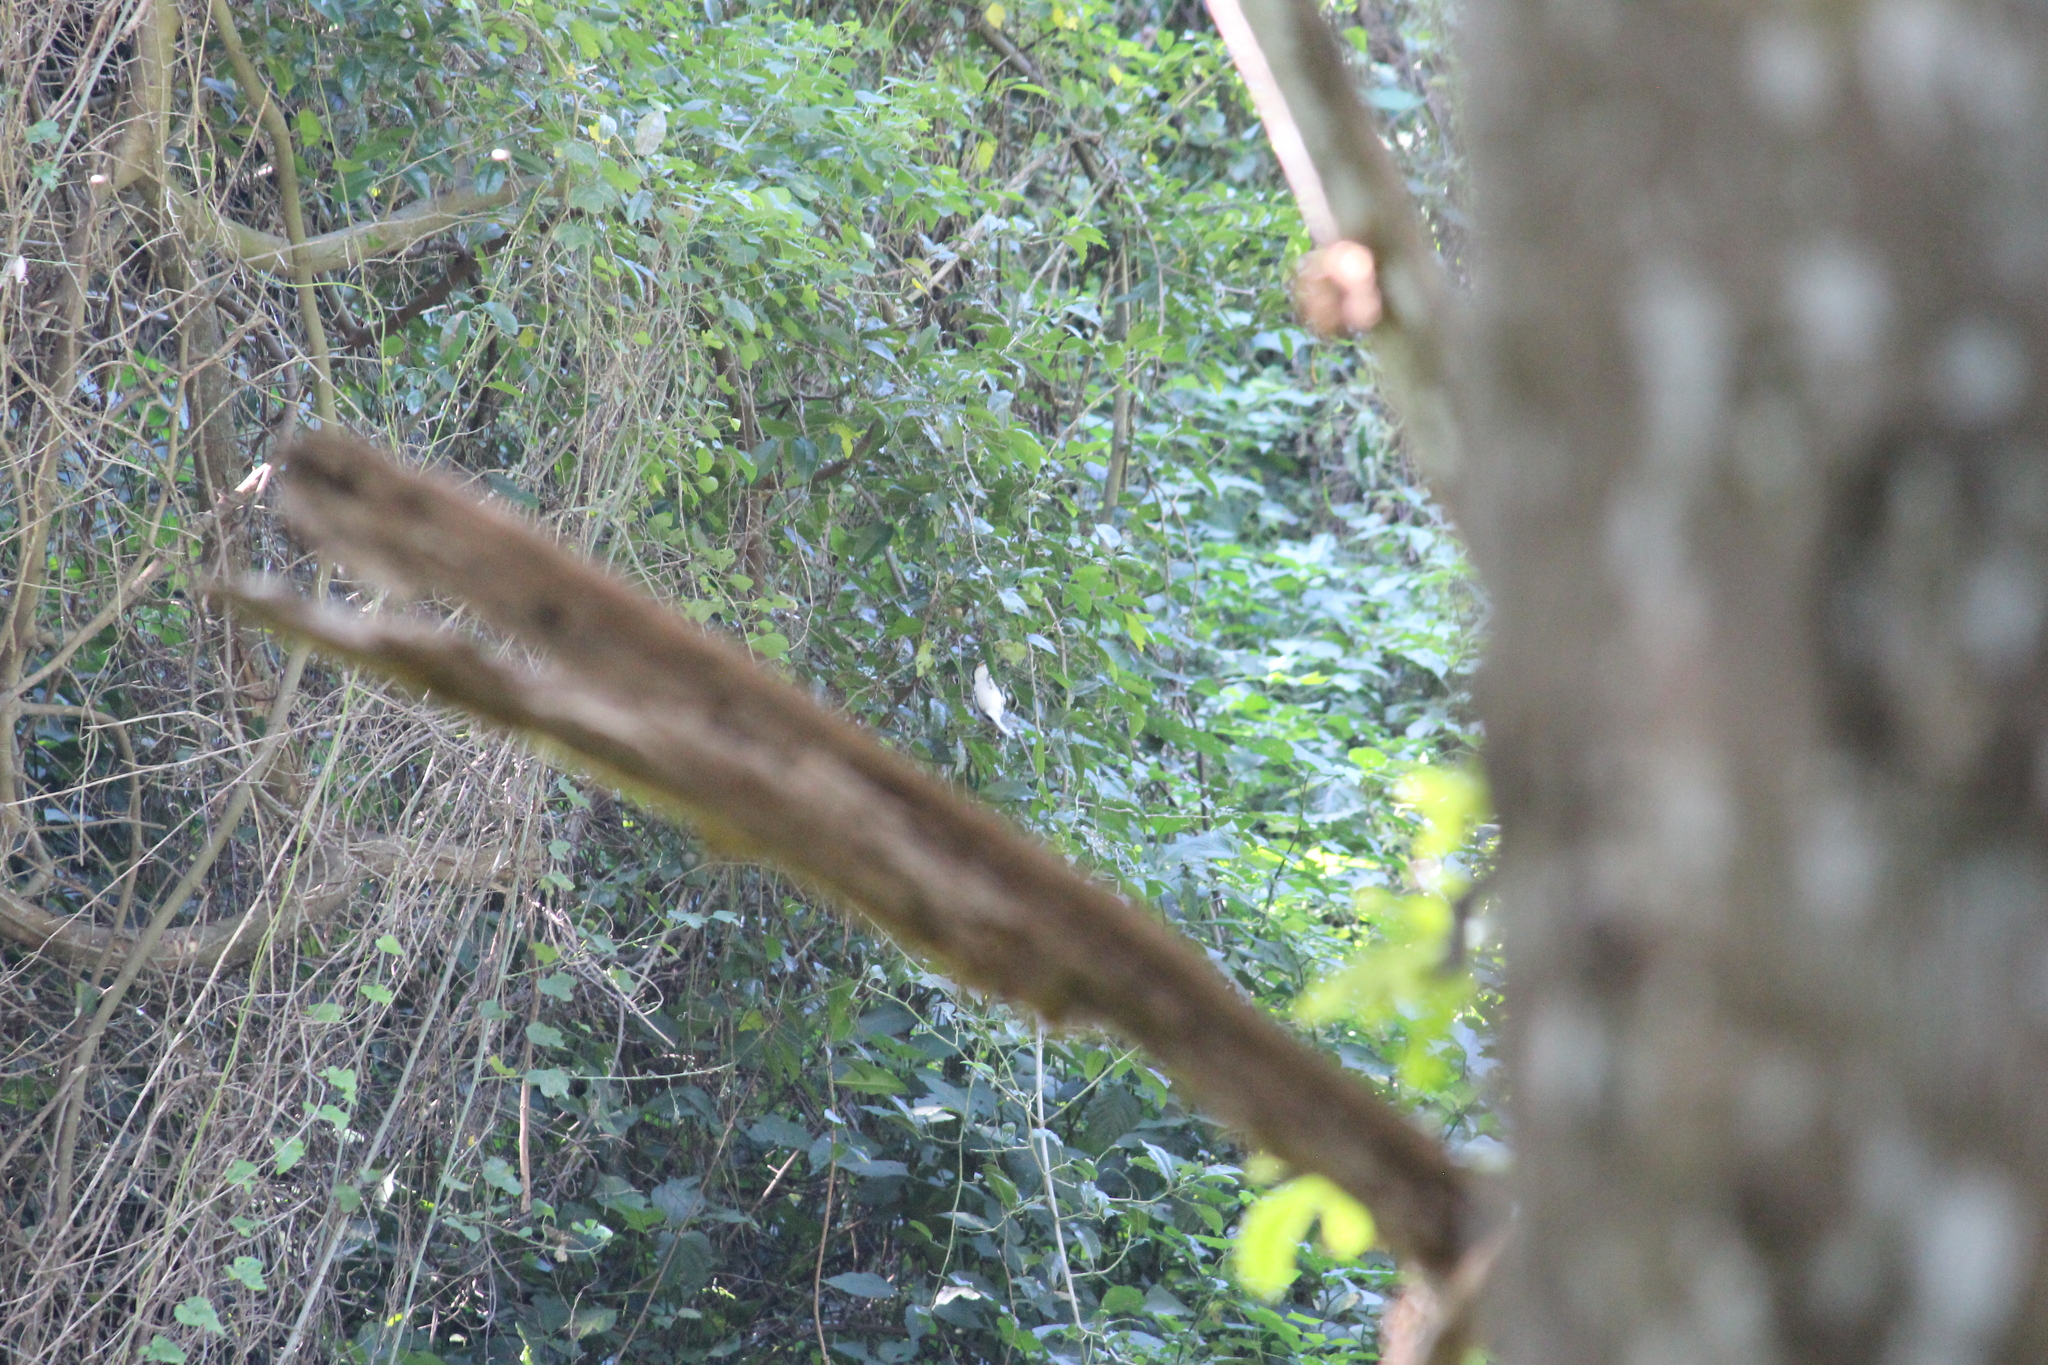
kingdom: Animalia
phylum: Chordata
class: Aves
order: Passeriformes
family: Malaconotidae
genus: Dryoscopus
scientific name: Dryoscopus cubla
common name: Black-backed puffback
